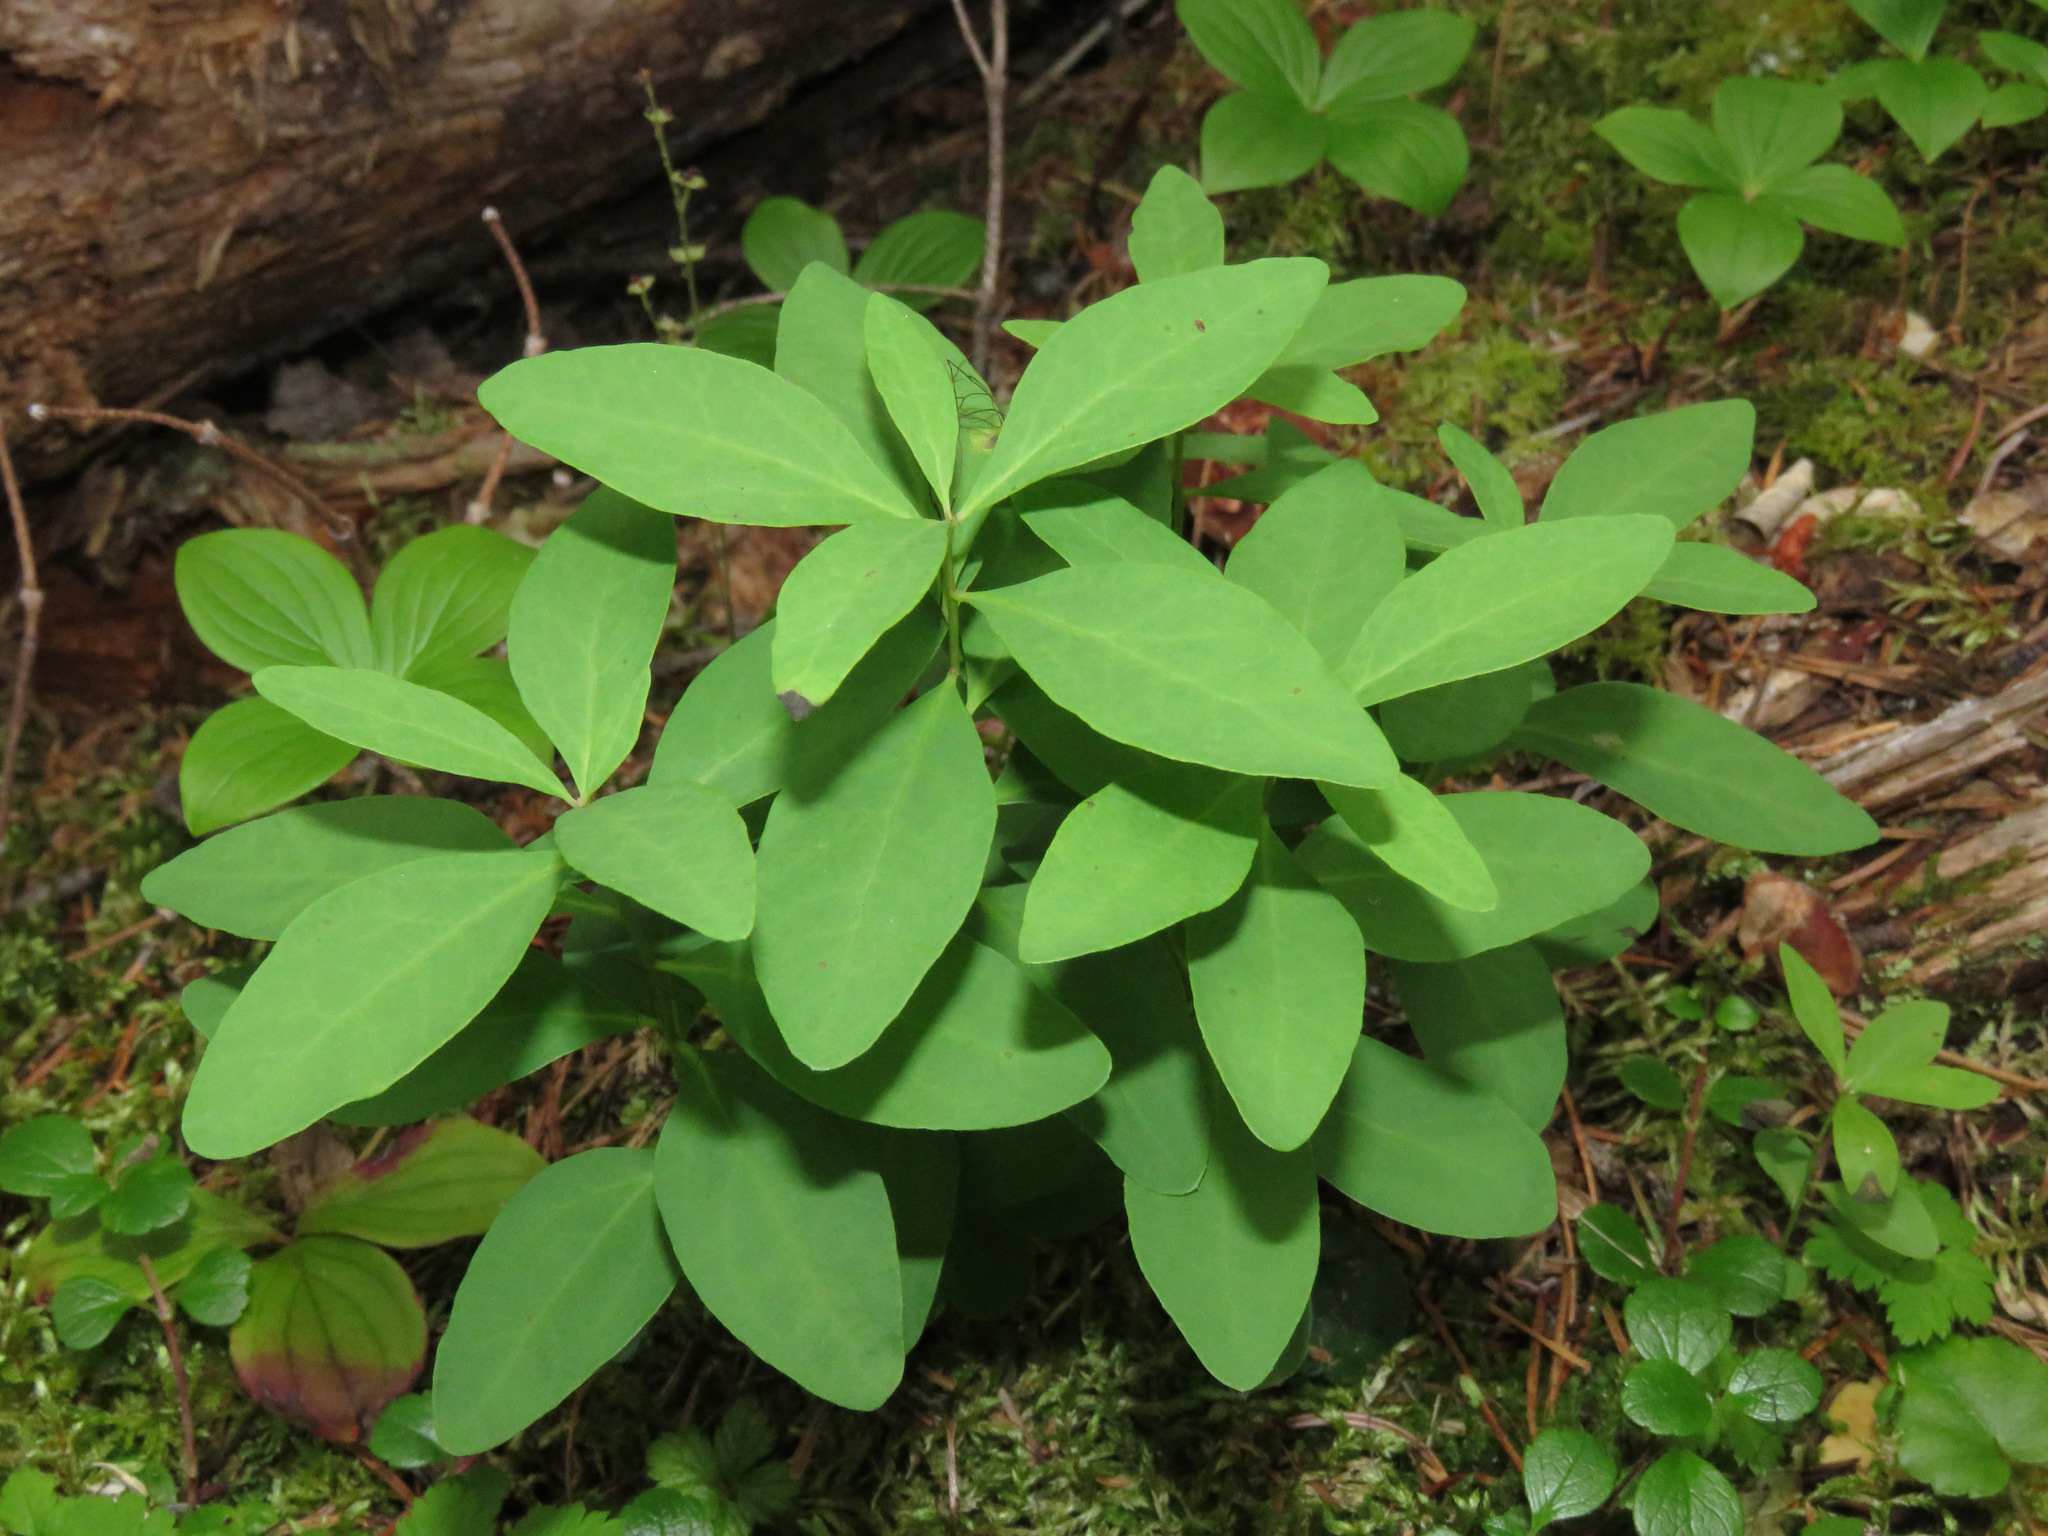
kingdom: Plantae
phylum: Tracheophyta
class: Magnoliopsida
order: Santalales
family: Comandraceae
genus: Geocaulon
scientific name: Geocaulon lividum
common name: Earthberry
